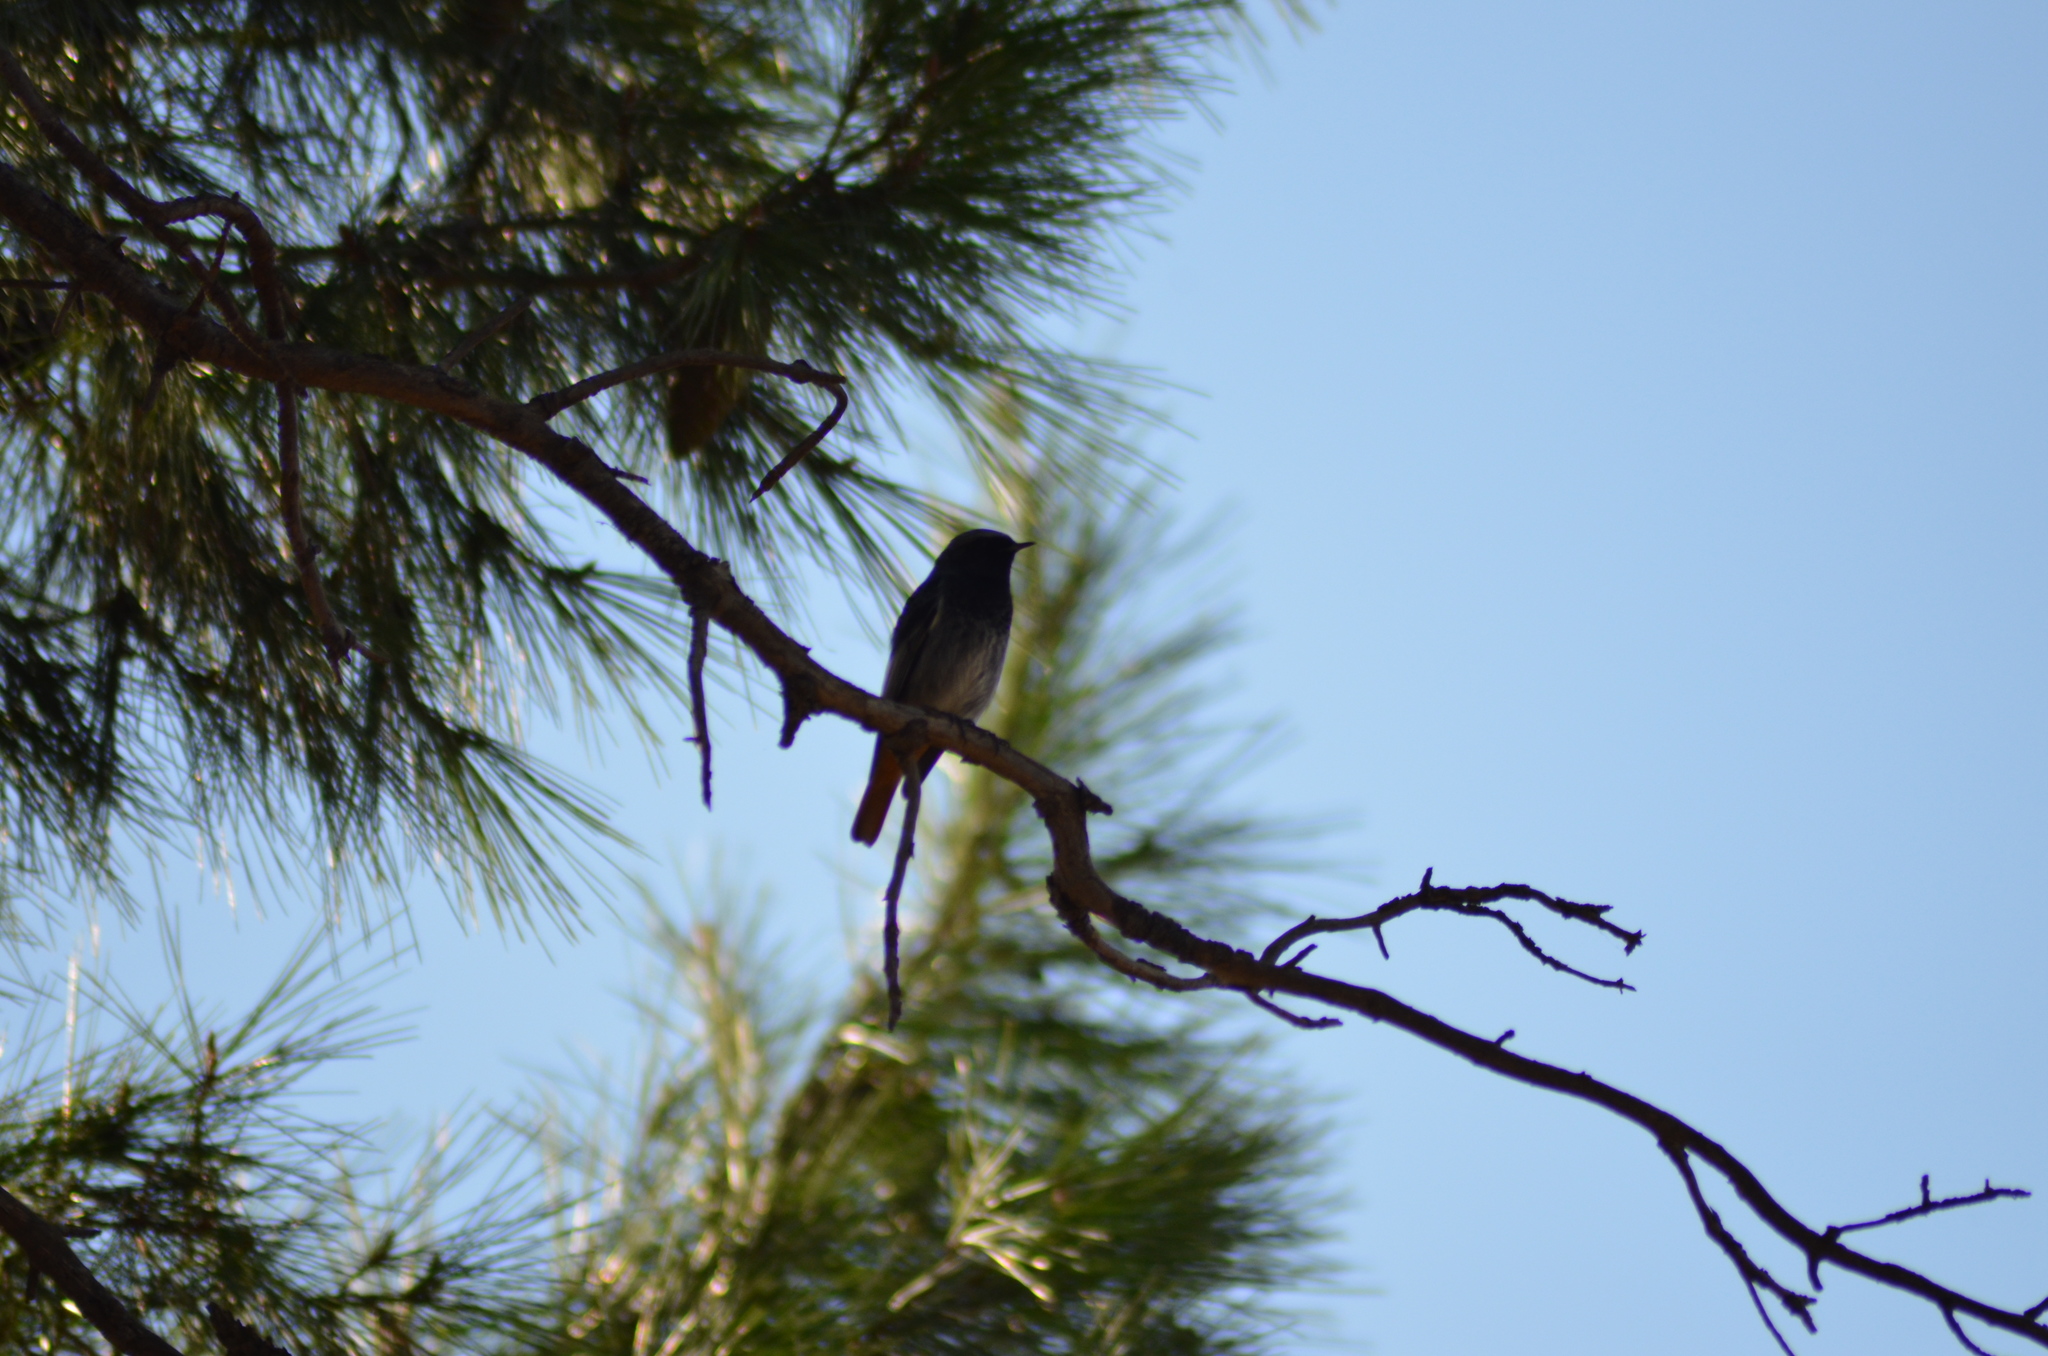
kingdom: Animalia
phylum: Chordata
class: Aves
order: Passeriformes
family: Muscicapidae
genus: Phoenicurus
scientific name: Phoenicurus ochruros
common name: Black redstart
